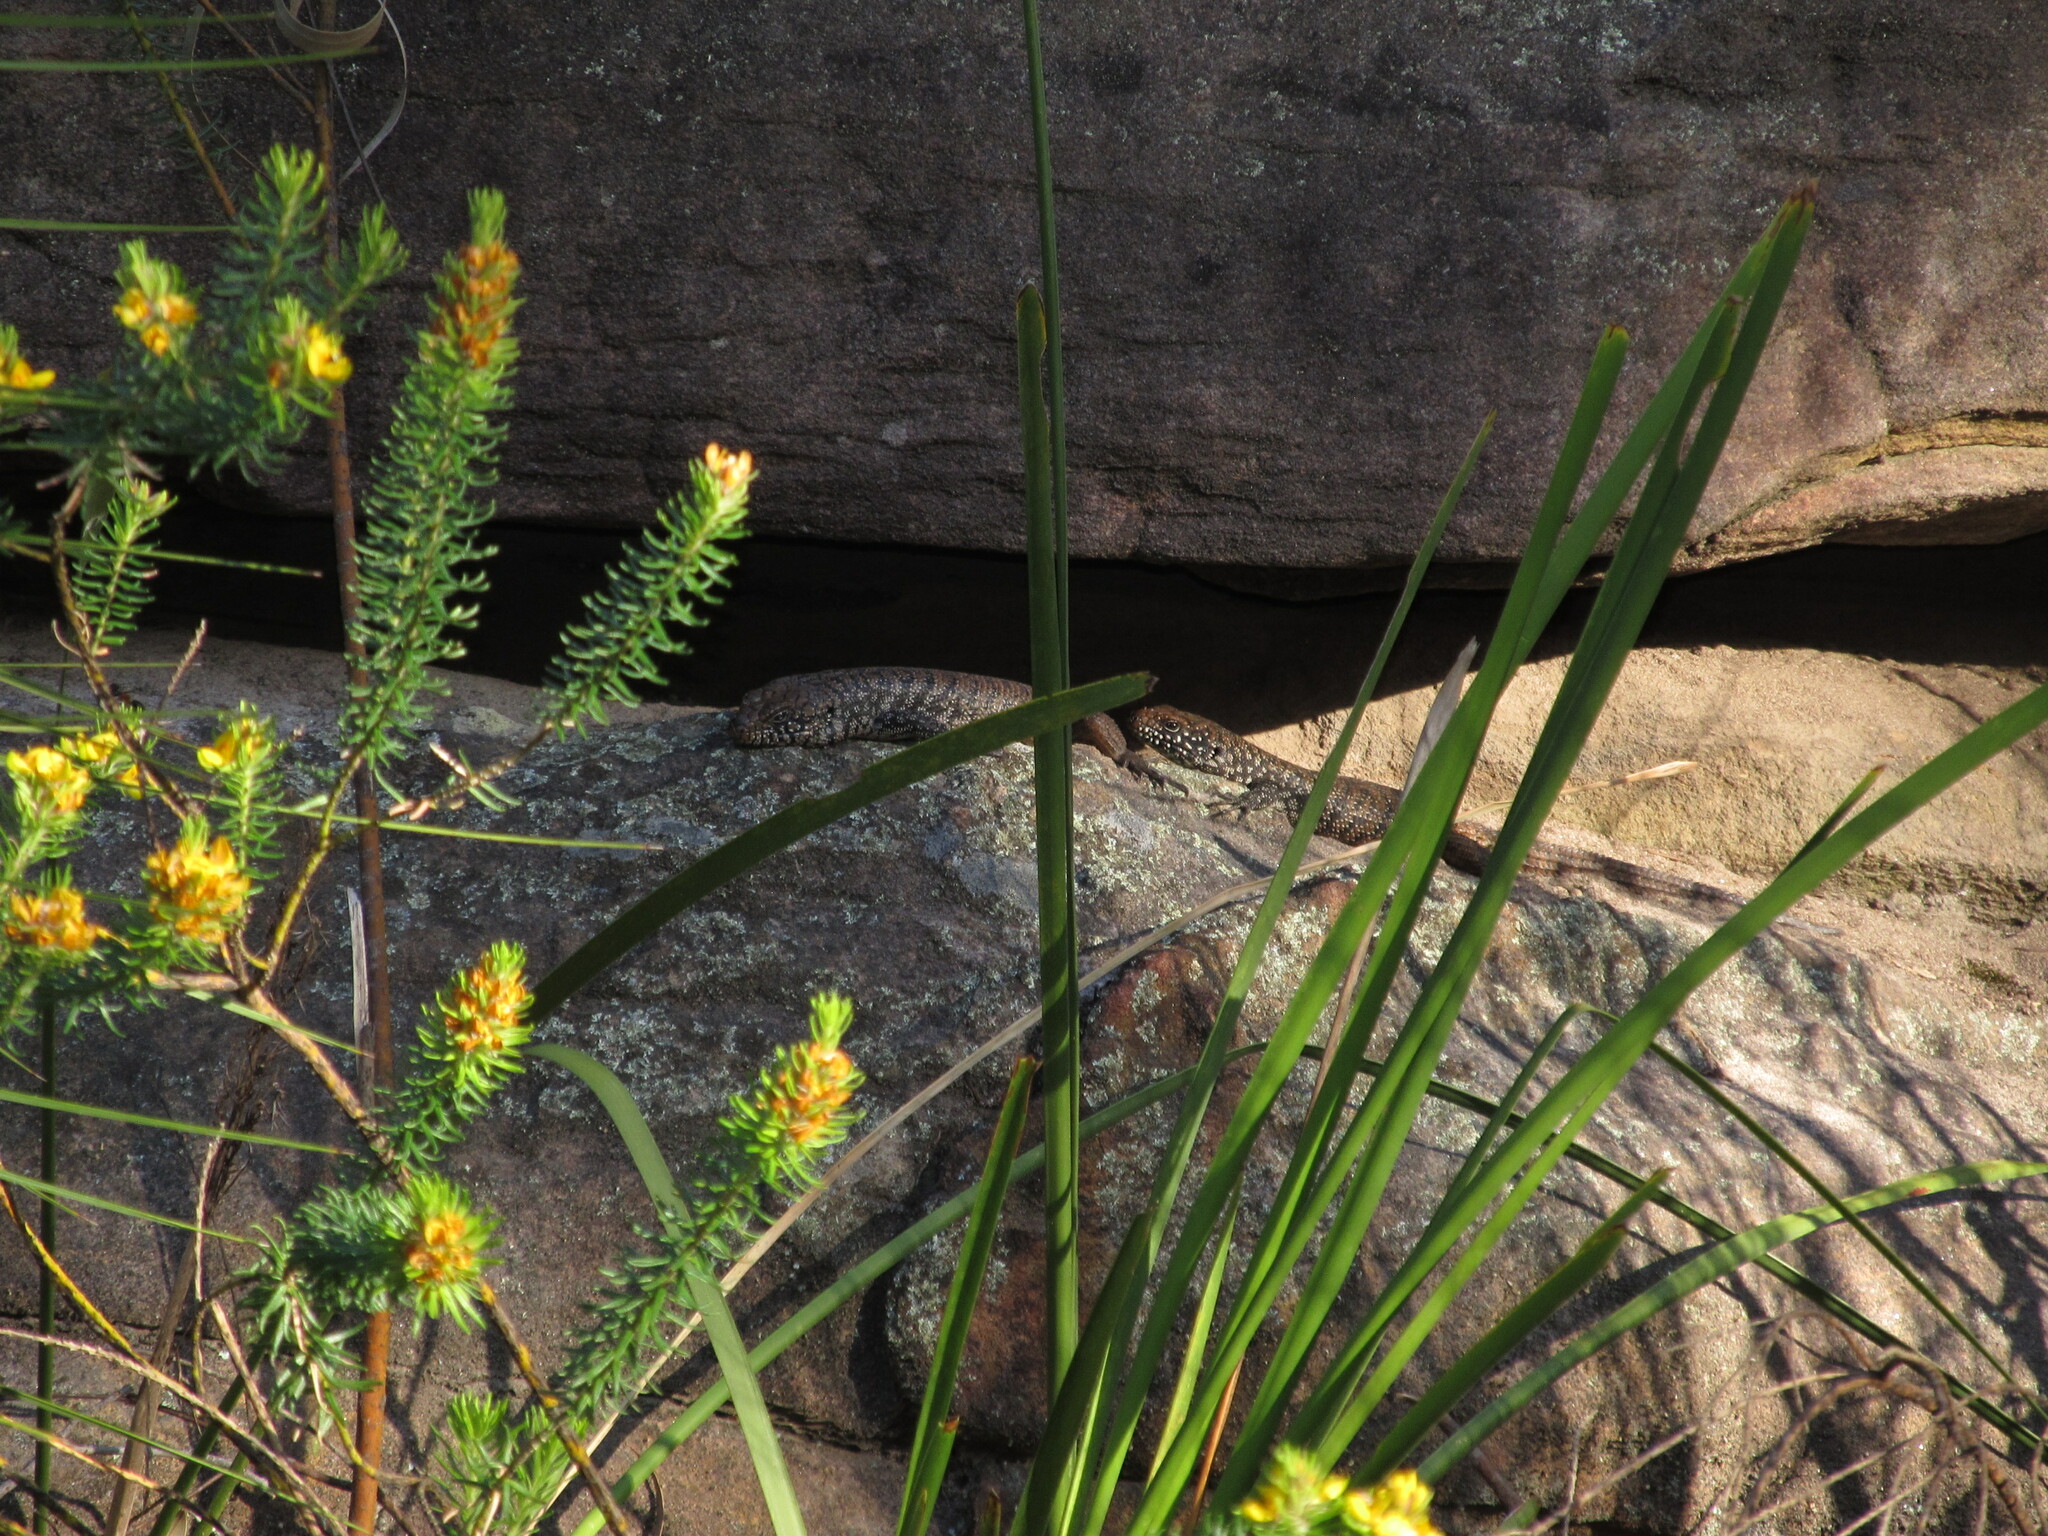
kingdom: Animalia
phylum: Chordata
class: Squamata
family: Scincidae
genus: Egernia
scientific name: Egernia cunninghami
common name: Cunningham's skink
